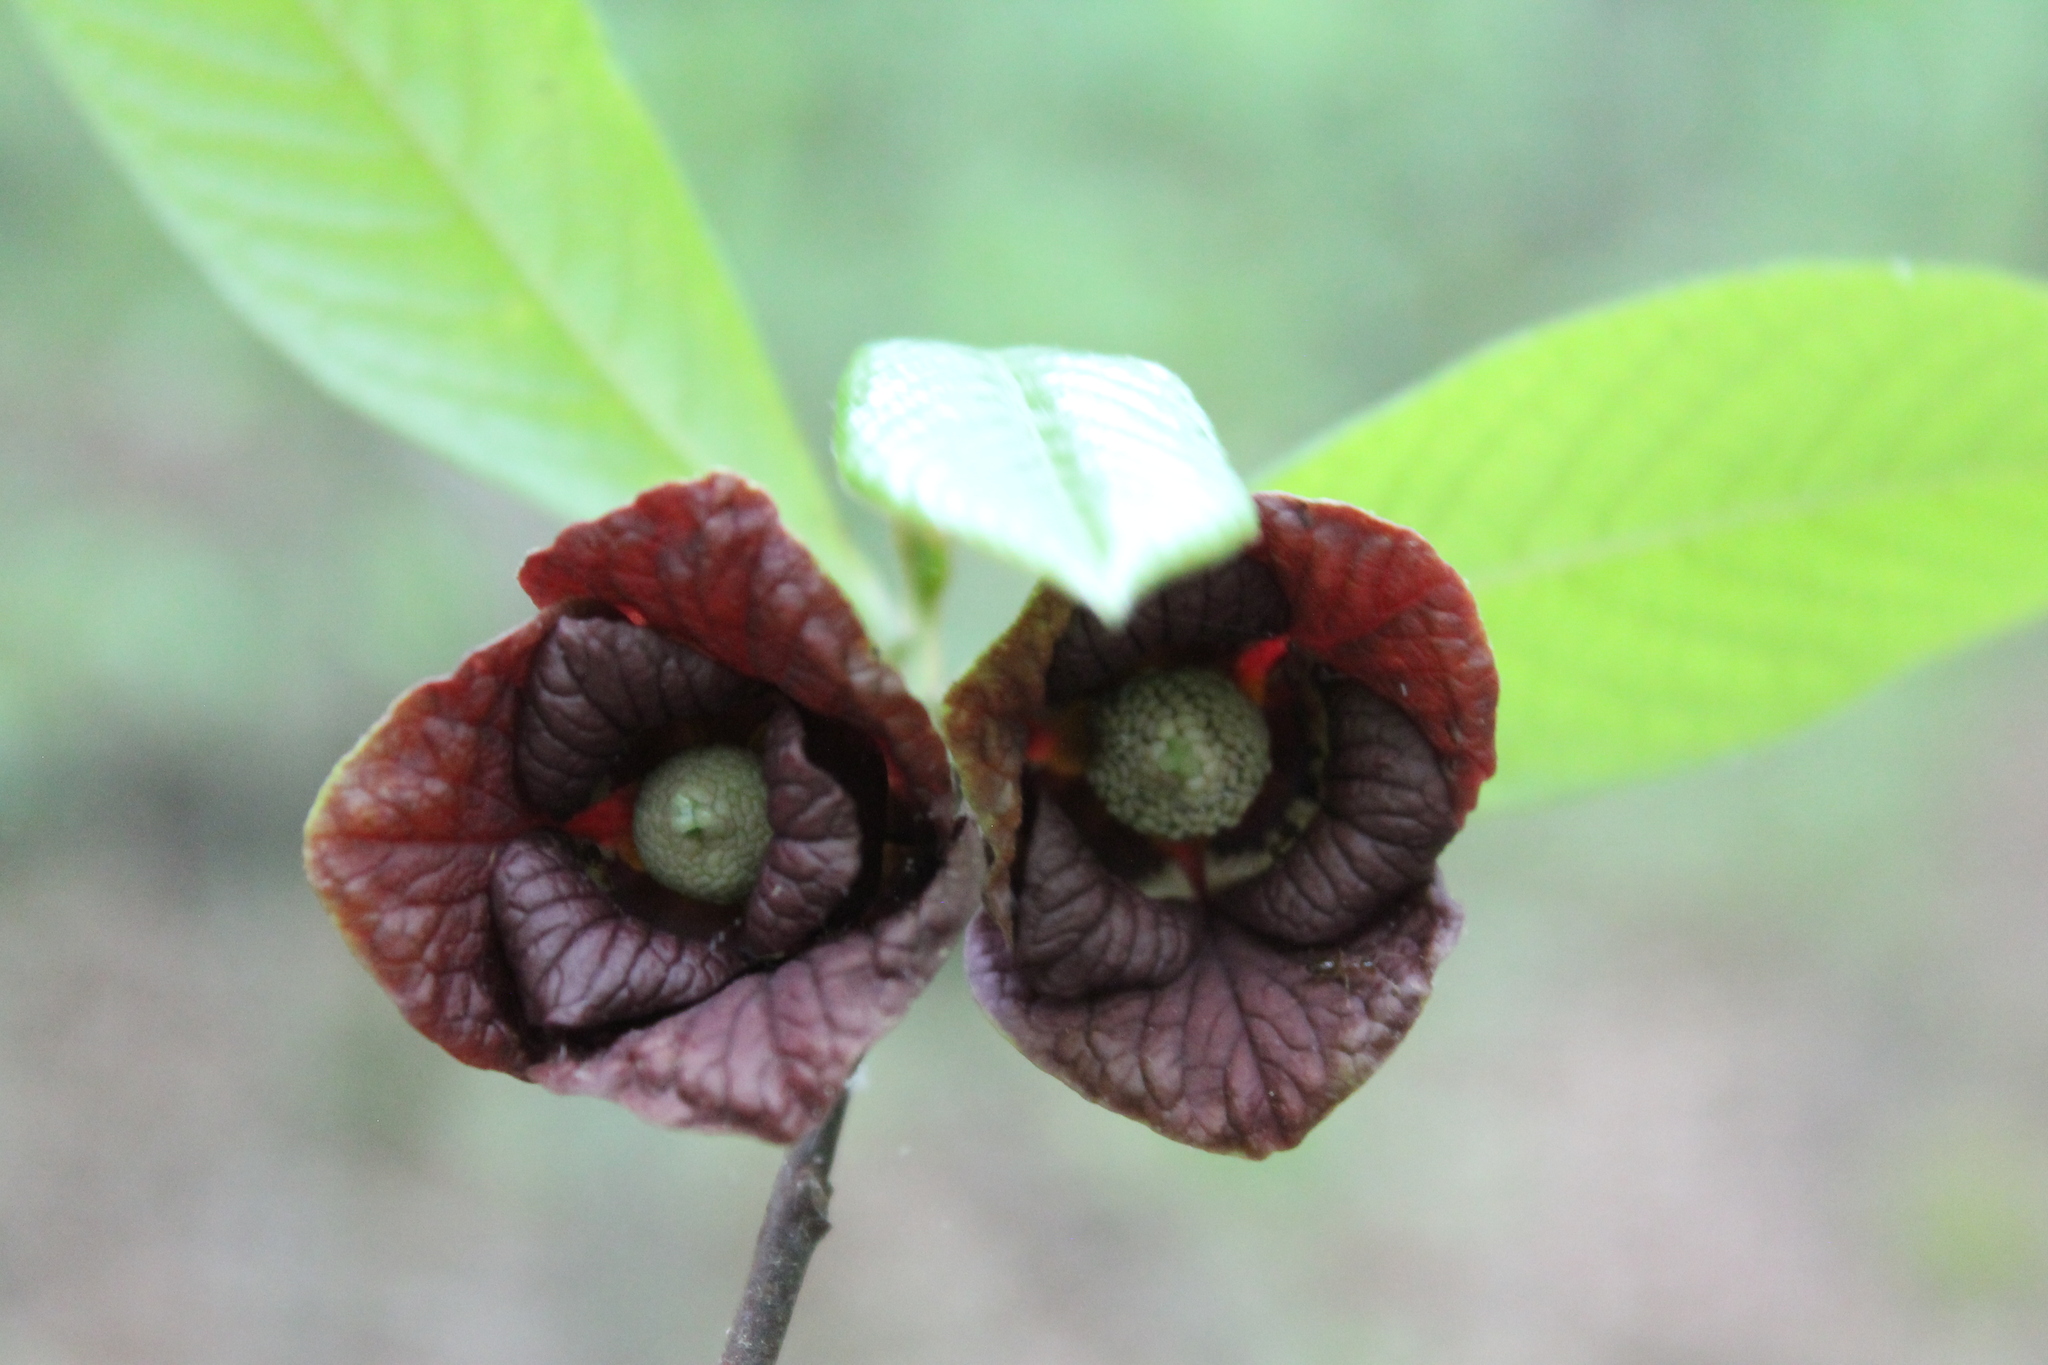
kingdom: Plantae
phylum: Tracheophyta
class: Magnoliopsida
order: Magnoliales
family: Annonaceae
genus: Asimina
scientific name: Asimina triloba
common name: Dog-banana
